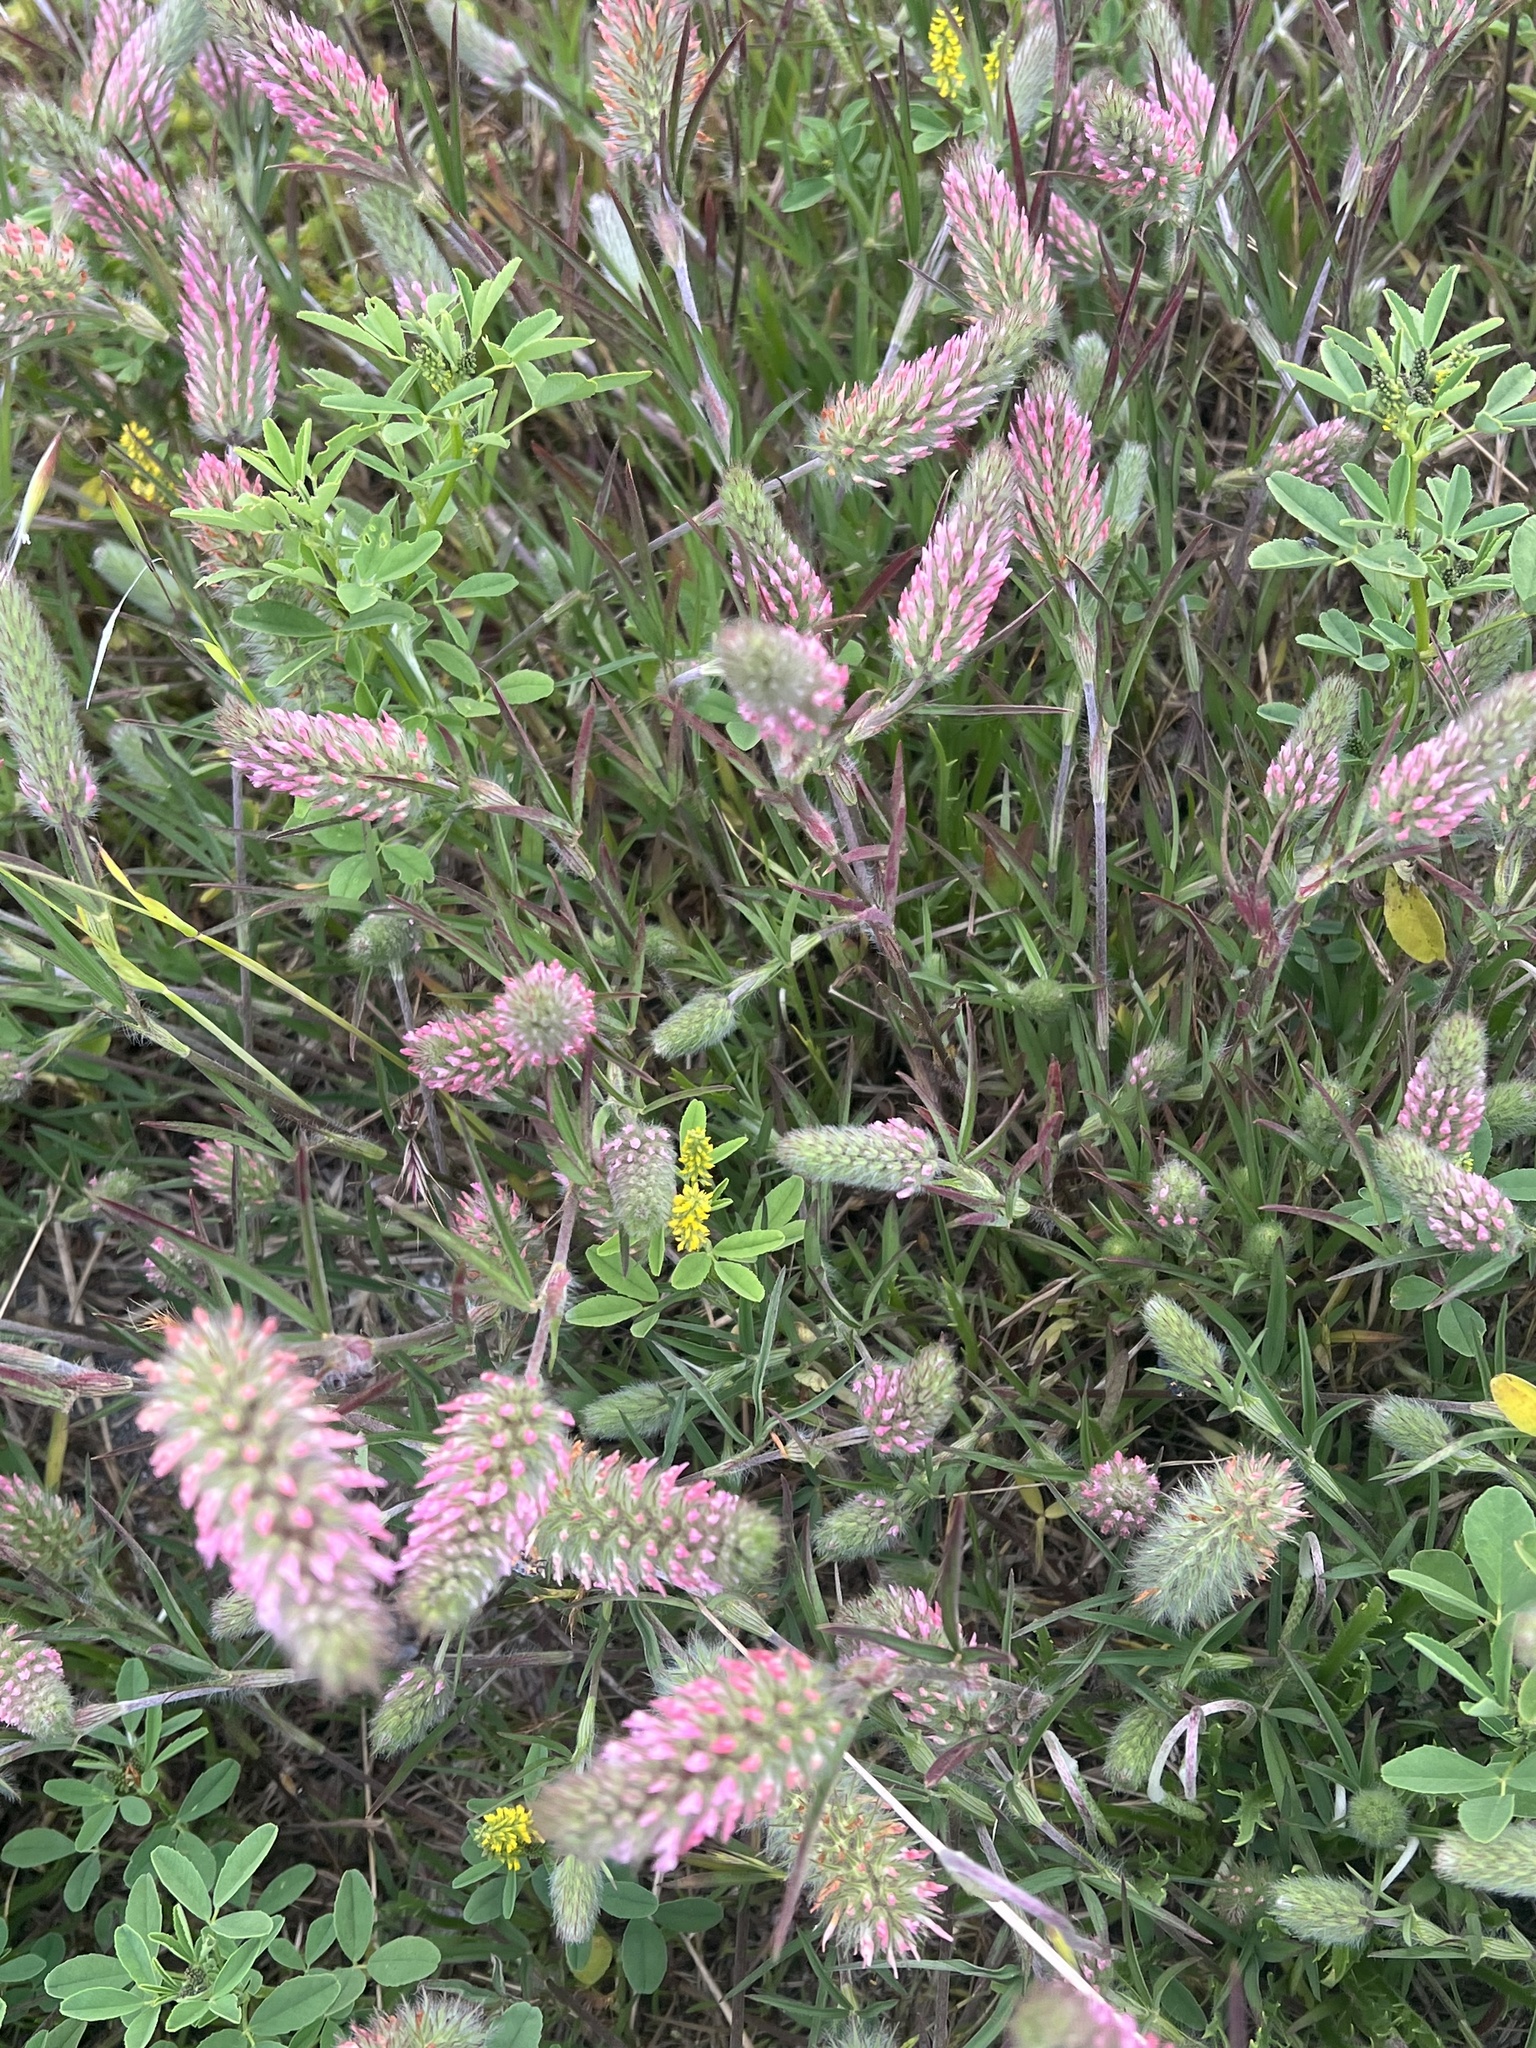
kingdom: Plantae
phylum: Tracheophyta
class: Magnoliopsida
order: Fabales
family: Fabaceae
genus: Trifolium
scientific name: Trifolium angustifolium
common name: Narrow clover
